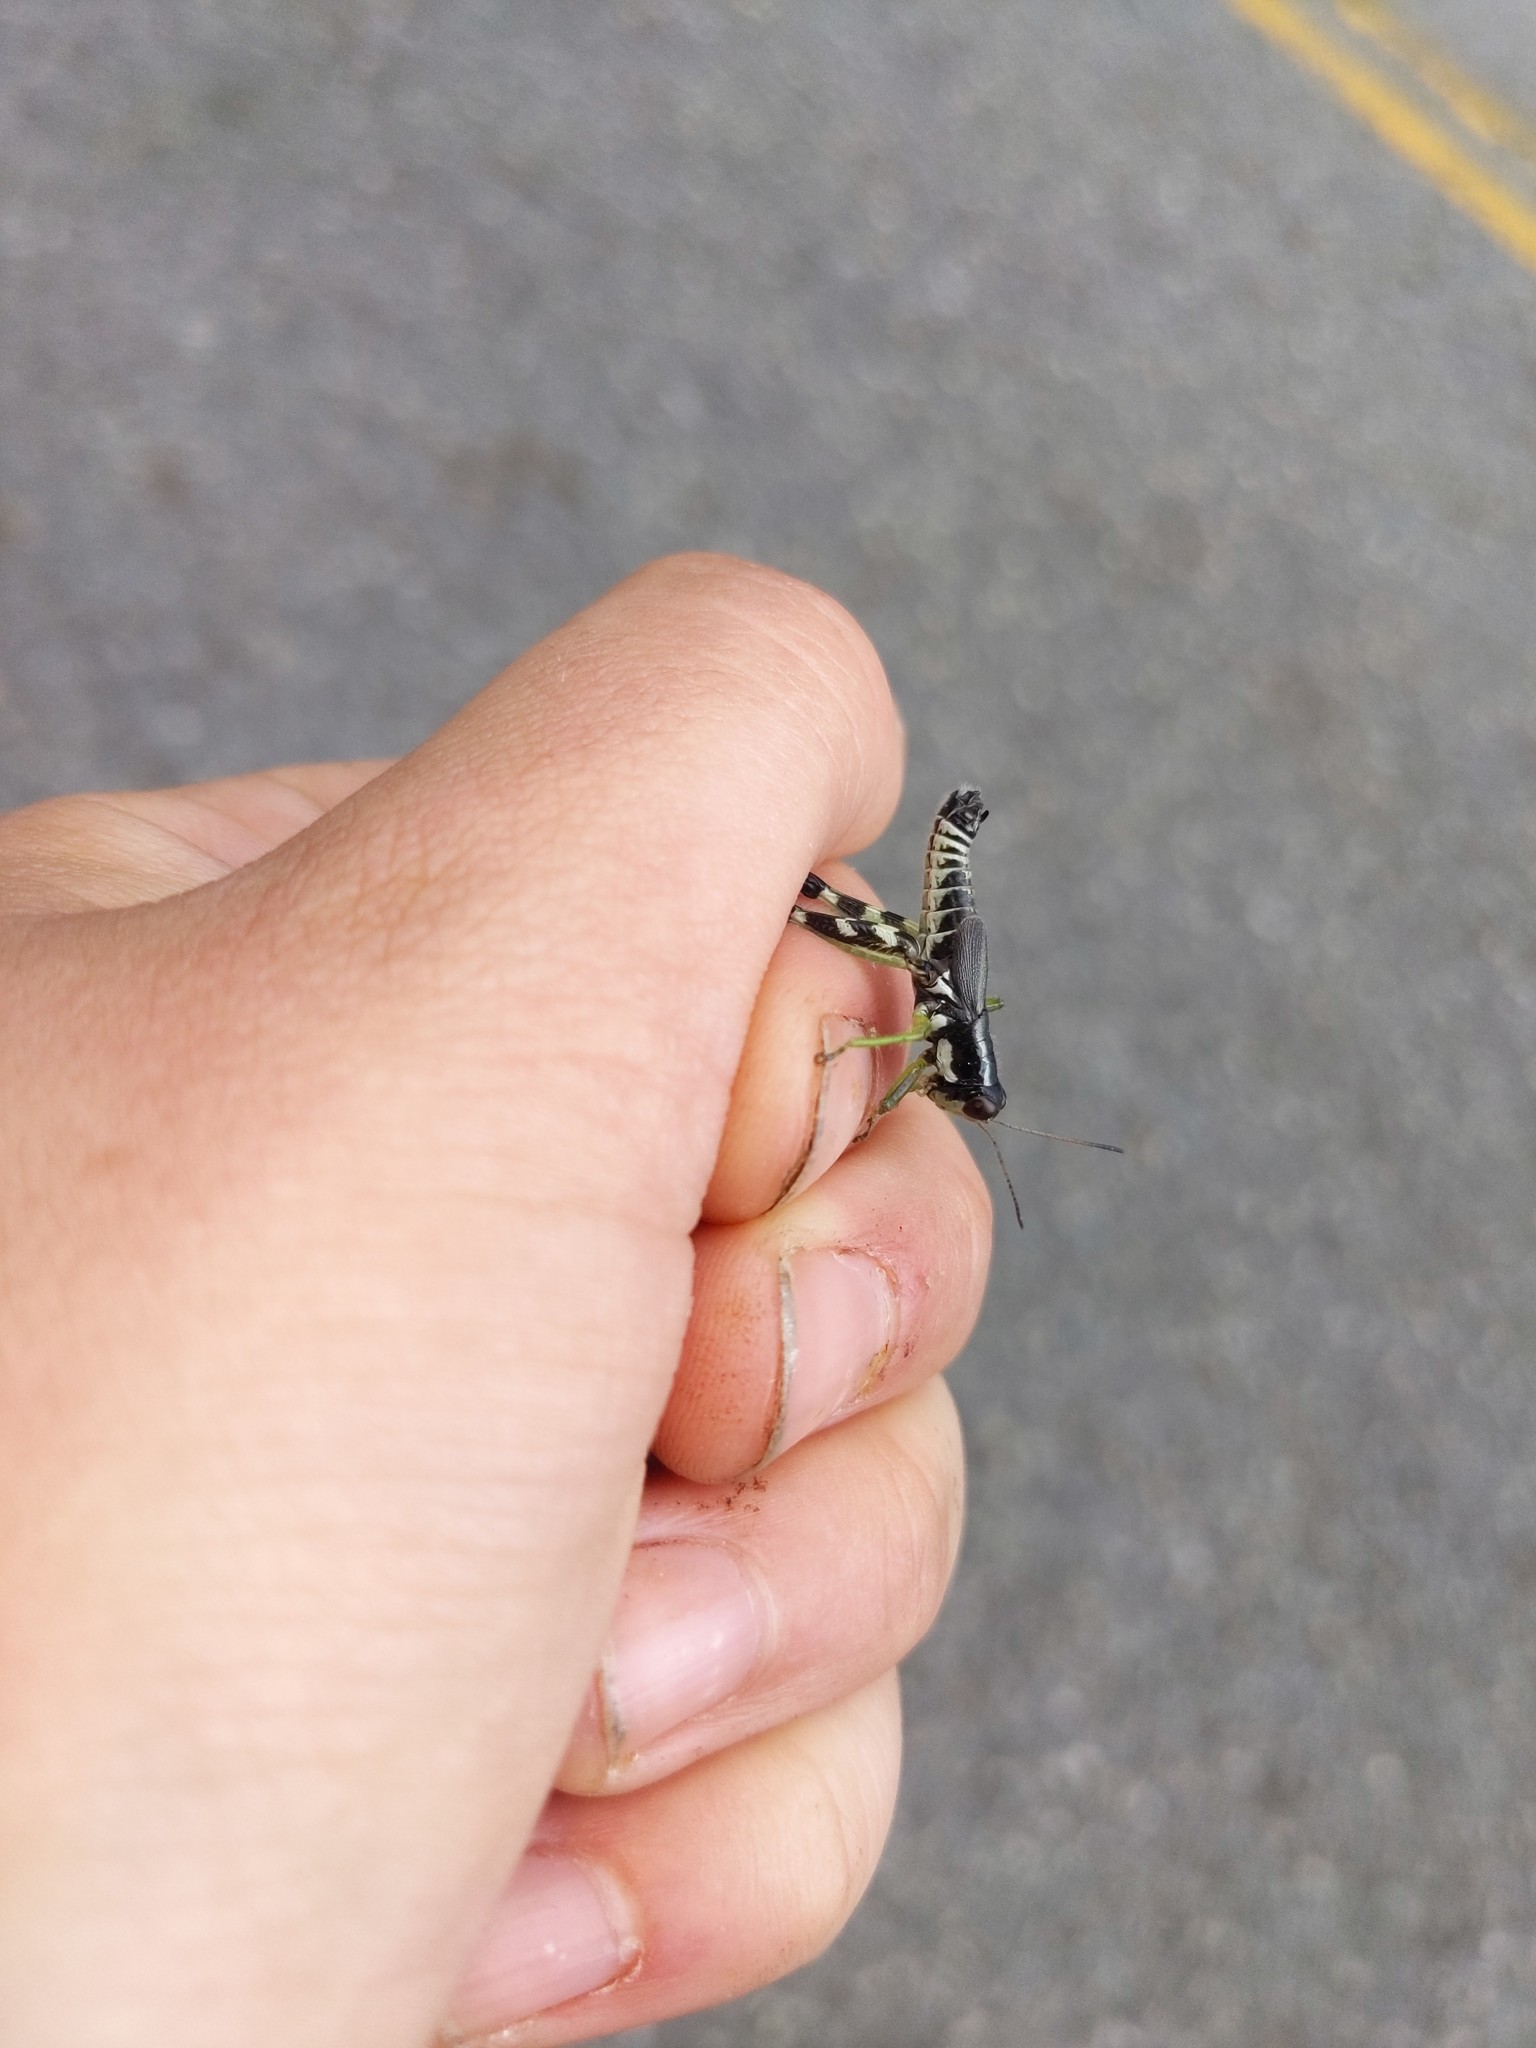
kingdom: Animalia
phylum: Arthropoda
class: Insecta
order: Orthoptera
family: Acrididae
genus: Melanoplus
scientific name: Melanoplus viridipes
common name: Green-legged locust
